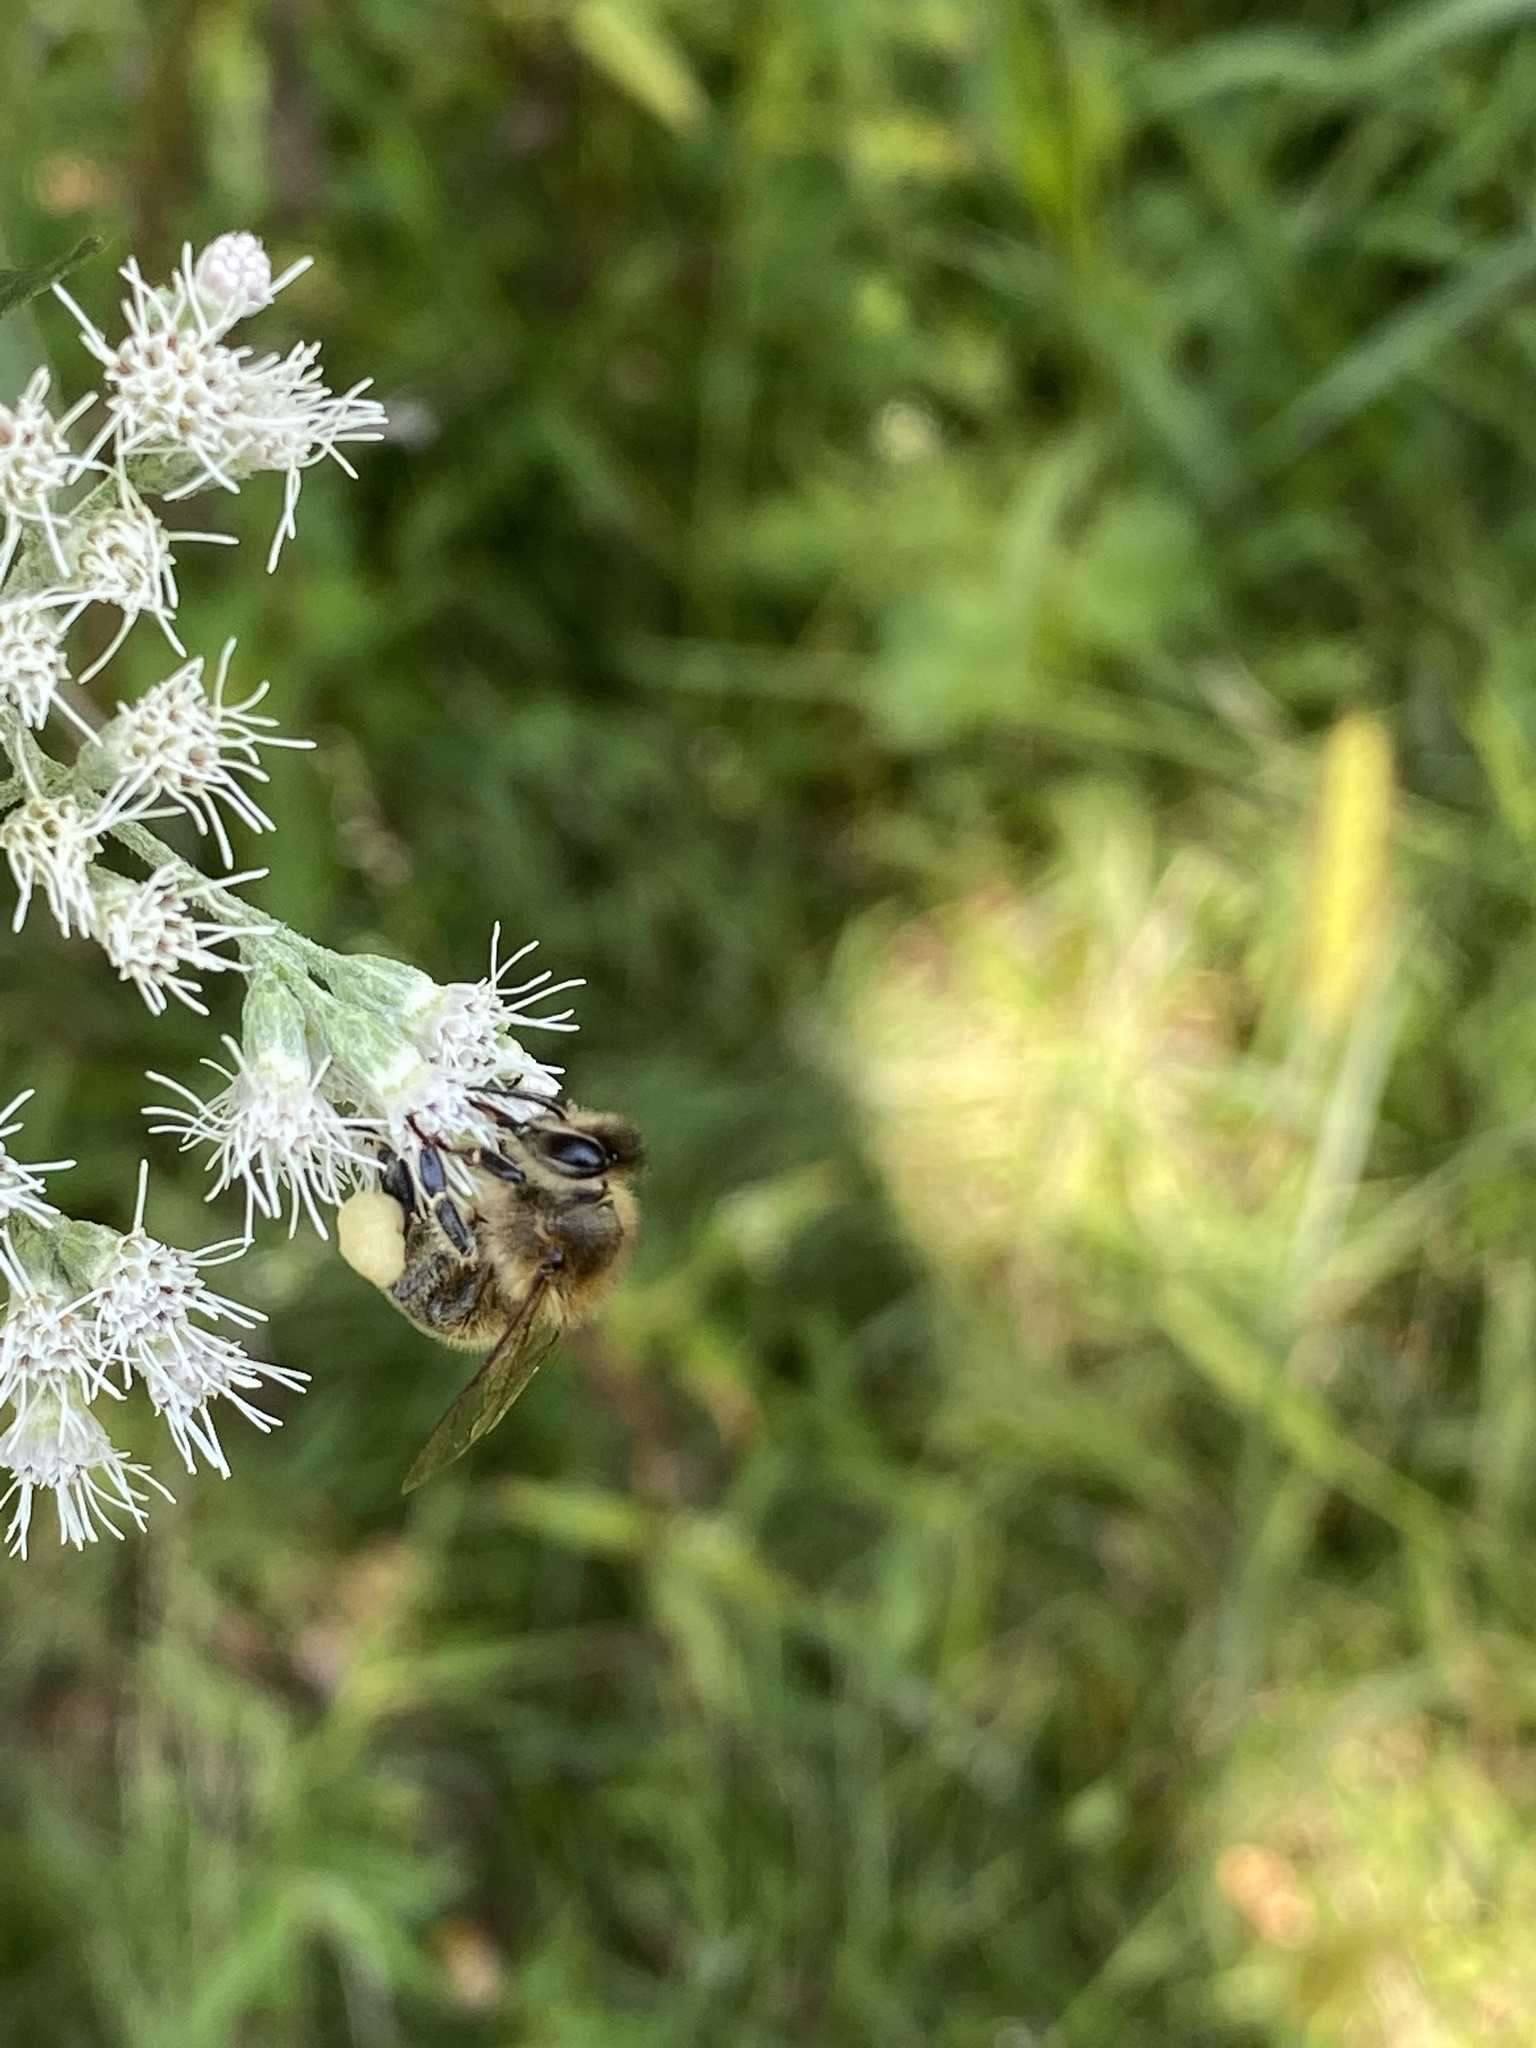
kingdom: Animalia
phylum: Arthropoda
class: Insecta
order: Hymenoptera
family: Apidae
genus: Apis
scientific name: Apis mellifera
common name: Honey bee
